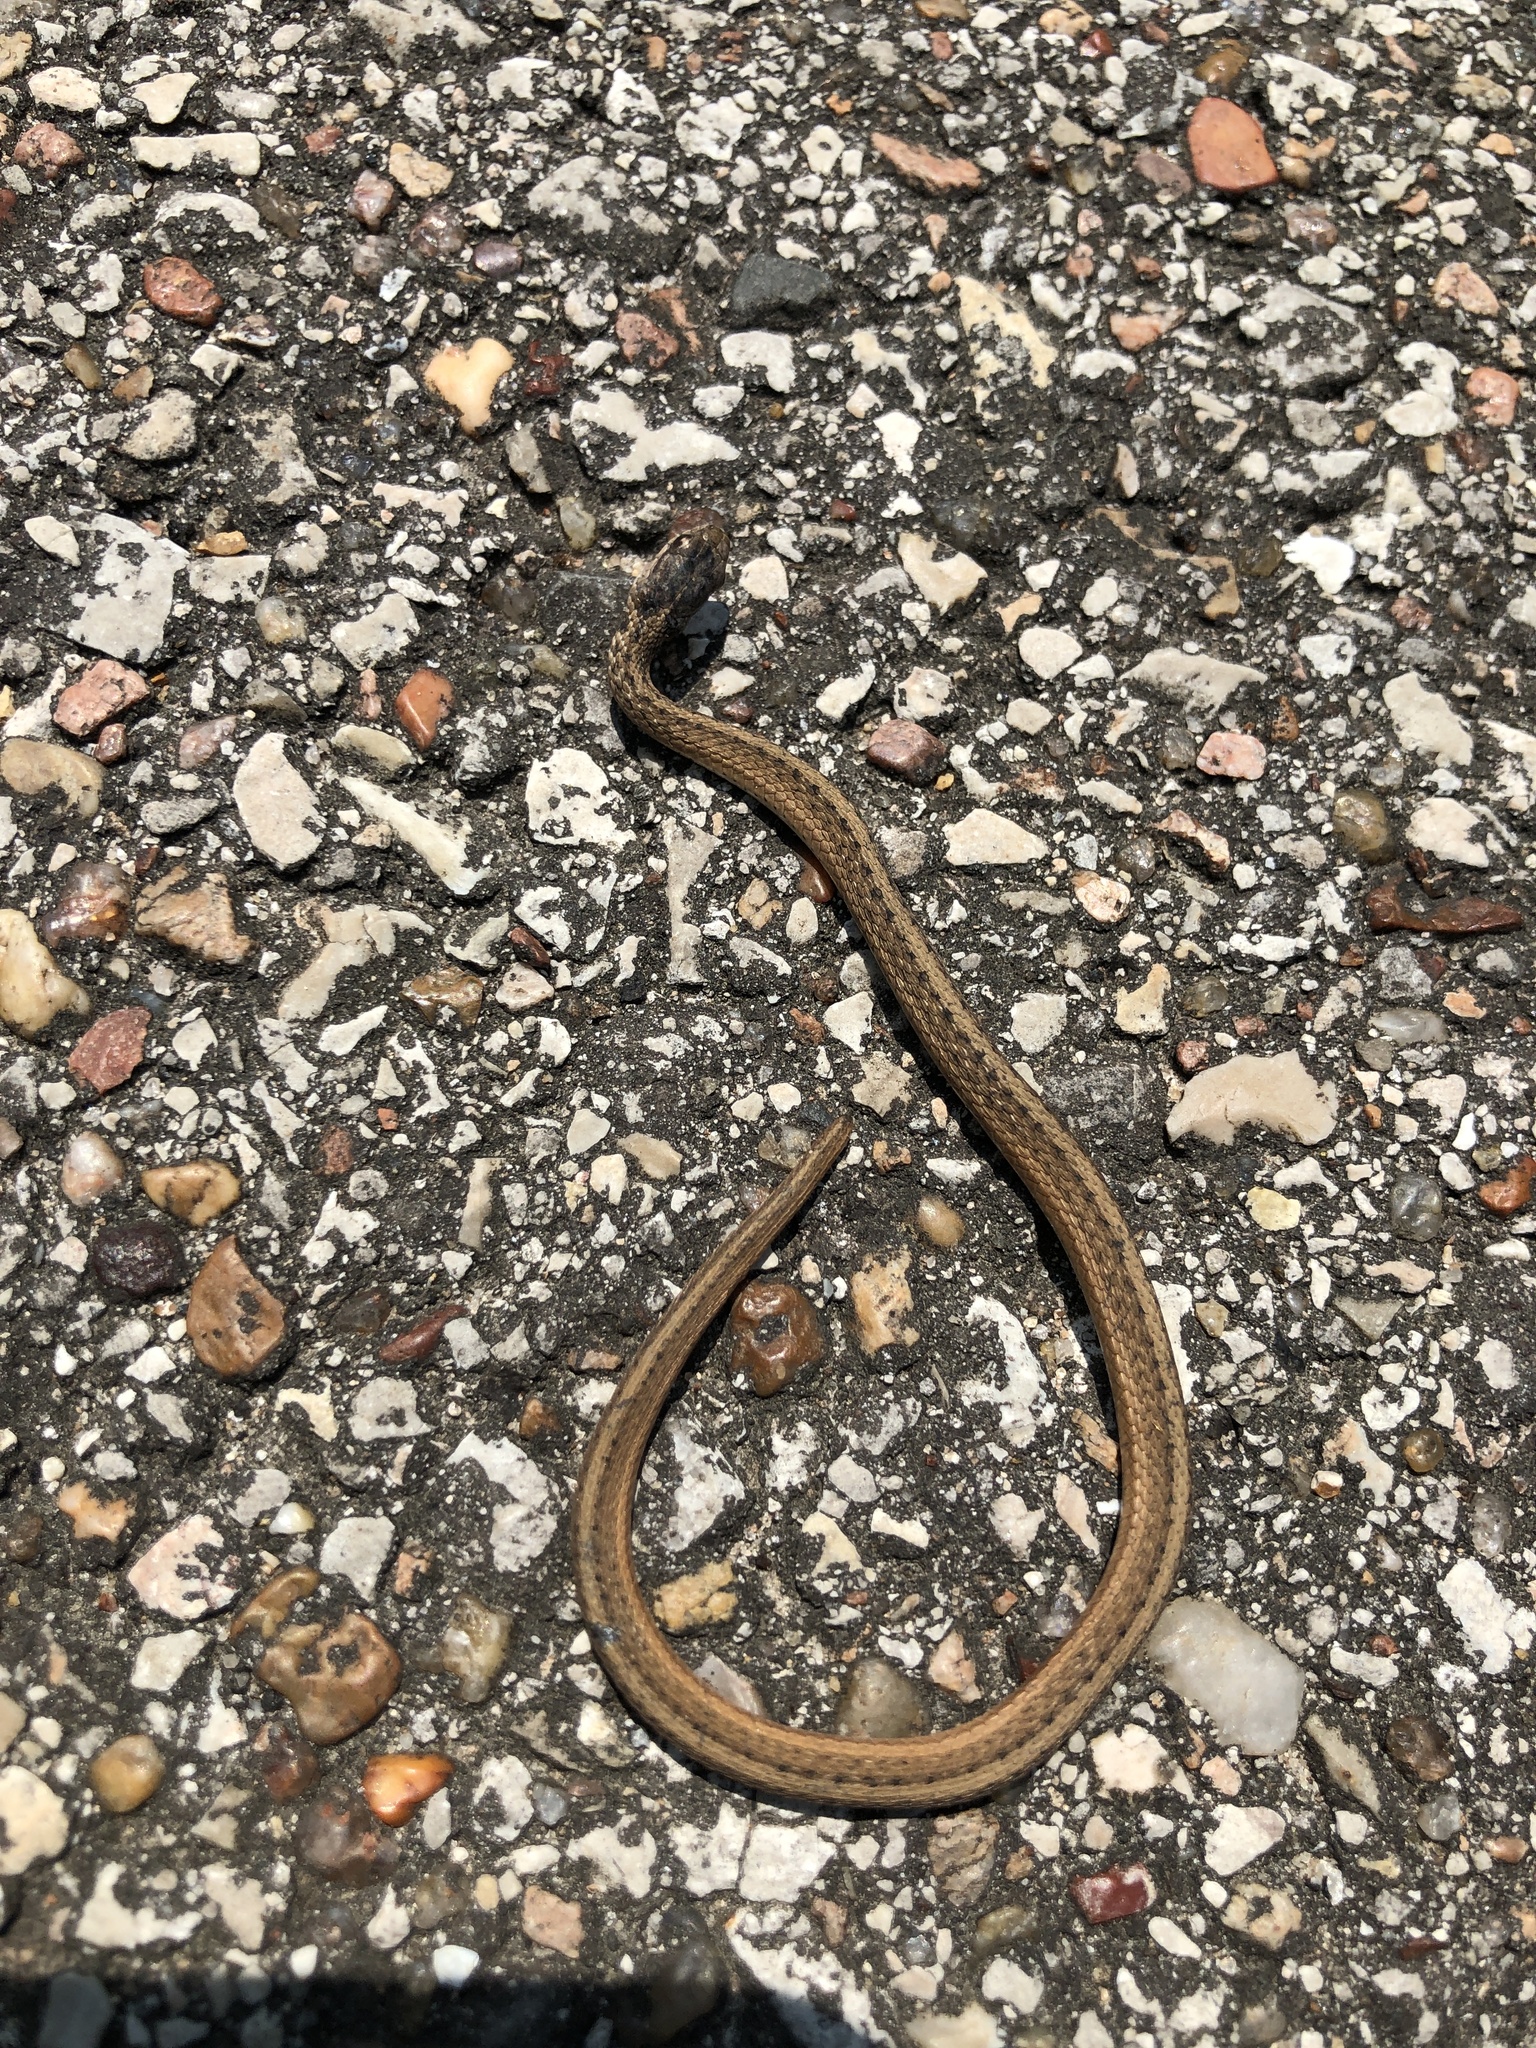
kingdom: Animalia
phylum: Chordata
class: Squamata
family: Colubridae
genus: Storeria
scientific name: Storeria dekayi
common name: (dekay’s) brown snake
